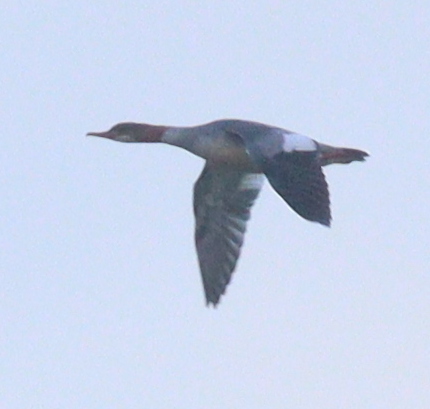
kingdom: Animalia
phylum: Chordata
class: Aves
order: Anseriformes
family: Anatidae
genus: Mergus
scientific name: Mergus merganser
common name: Common merganser
